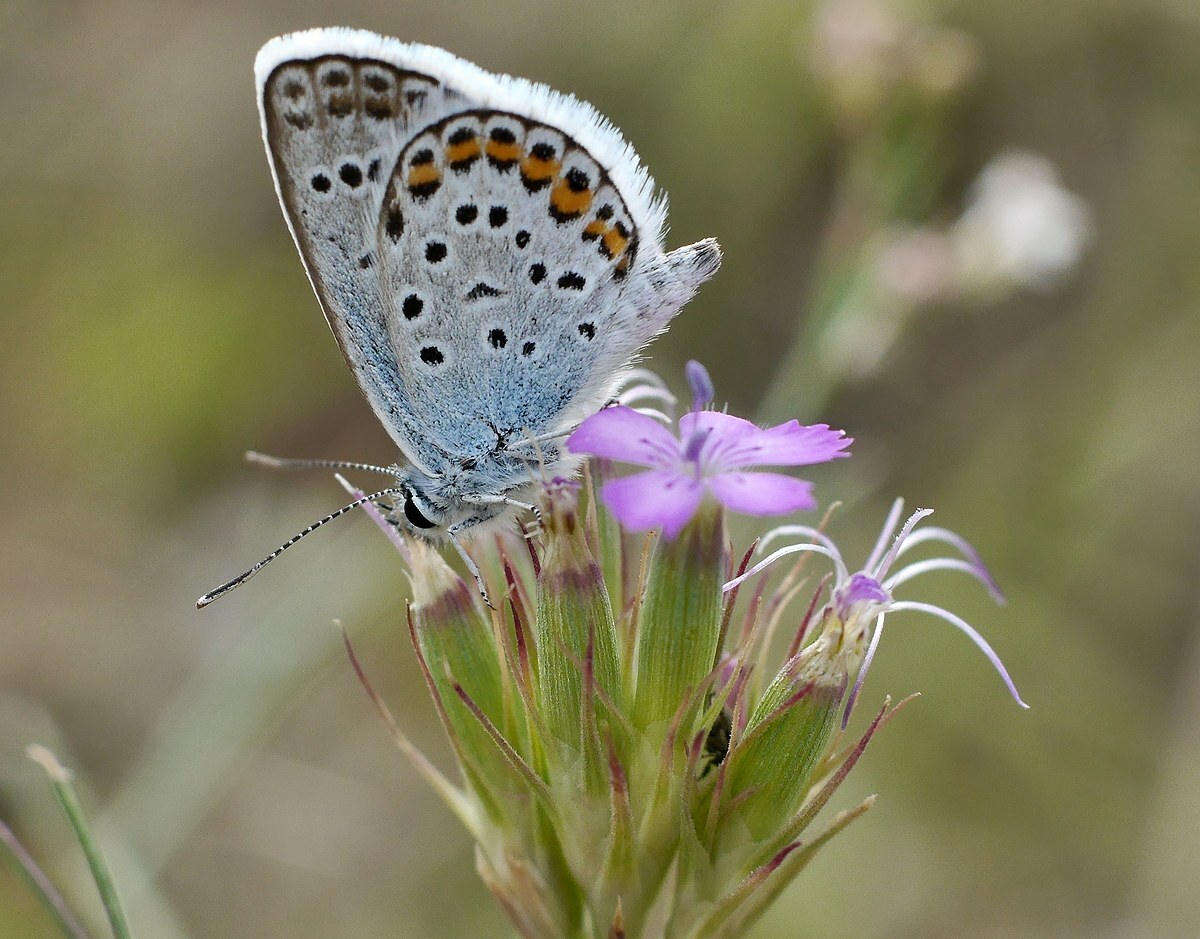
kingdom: Animalia
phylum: Arthropoda
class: Insecta
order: Lepidoptera
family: Lycaenidae
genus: Plebejus
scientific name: Plebejus argus
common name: Silver-studded blue
